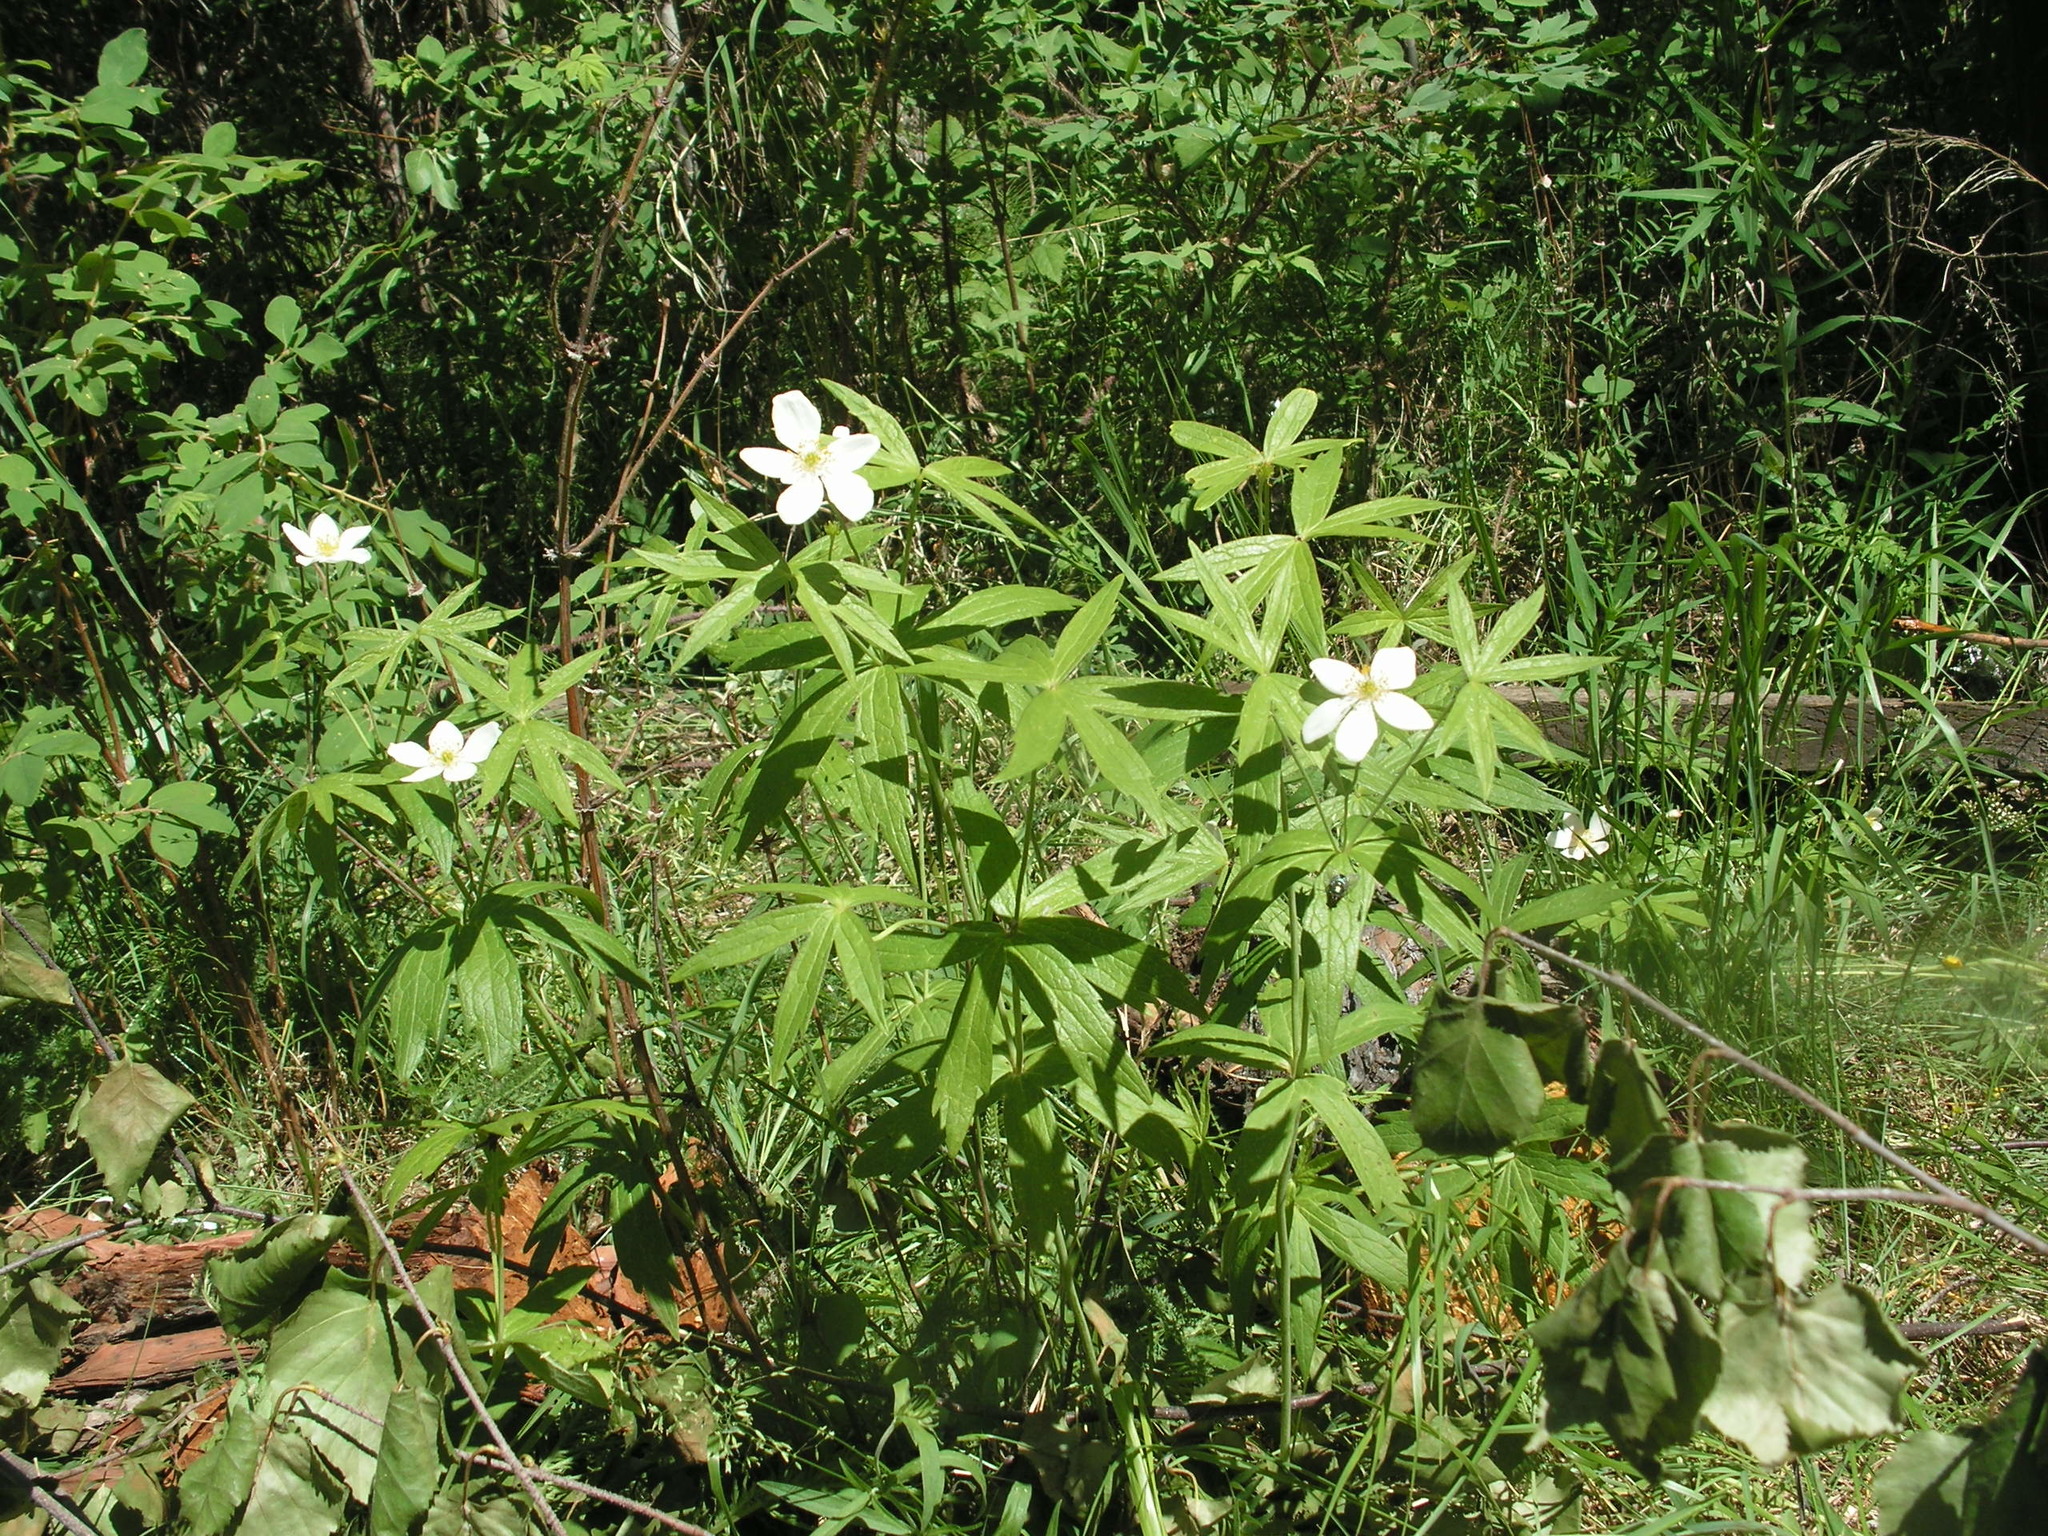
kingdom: Plantae
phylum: Tracheophyta
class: Magnoliopsida
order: Ranunculales
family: Ranunculaceae
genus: Anemonastrum
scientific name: Anemonastrum dichotomum
